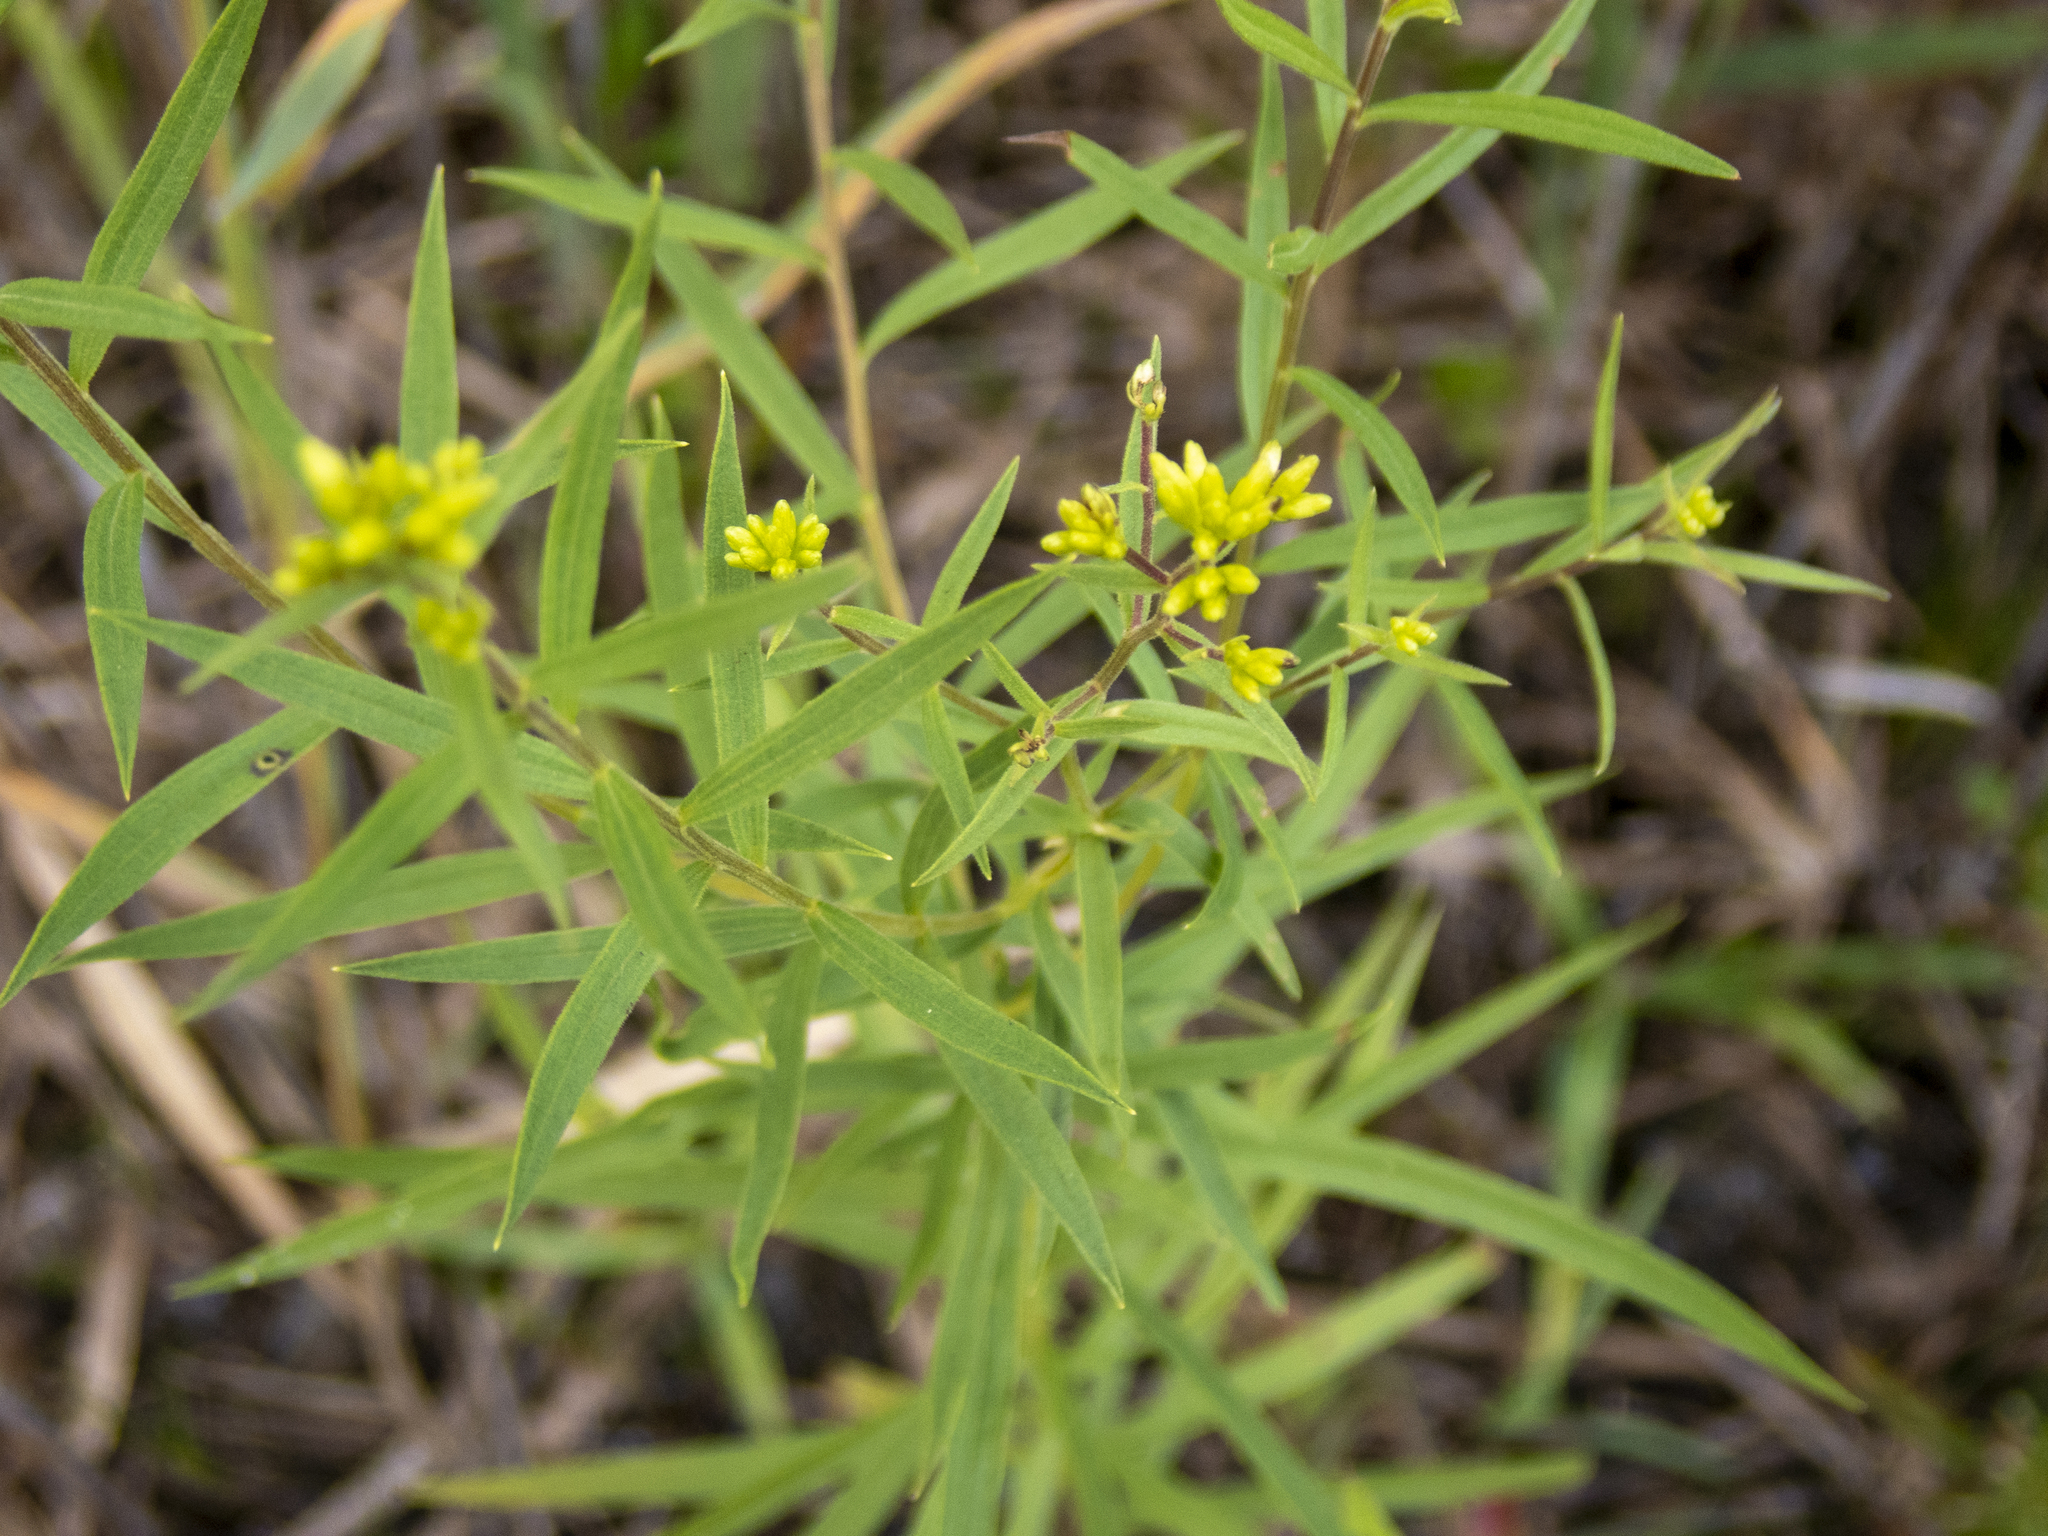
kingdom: Plantae
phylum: Tracheophyta
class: Magnoliopsida
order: Asterales
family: Asteraceae
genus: Euthamia
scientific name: Euthamia graminifolia
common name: Common goldentop
